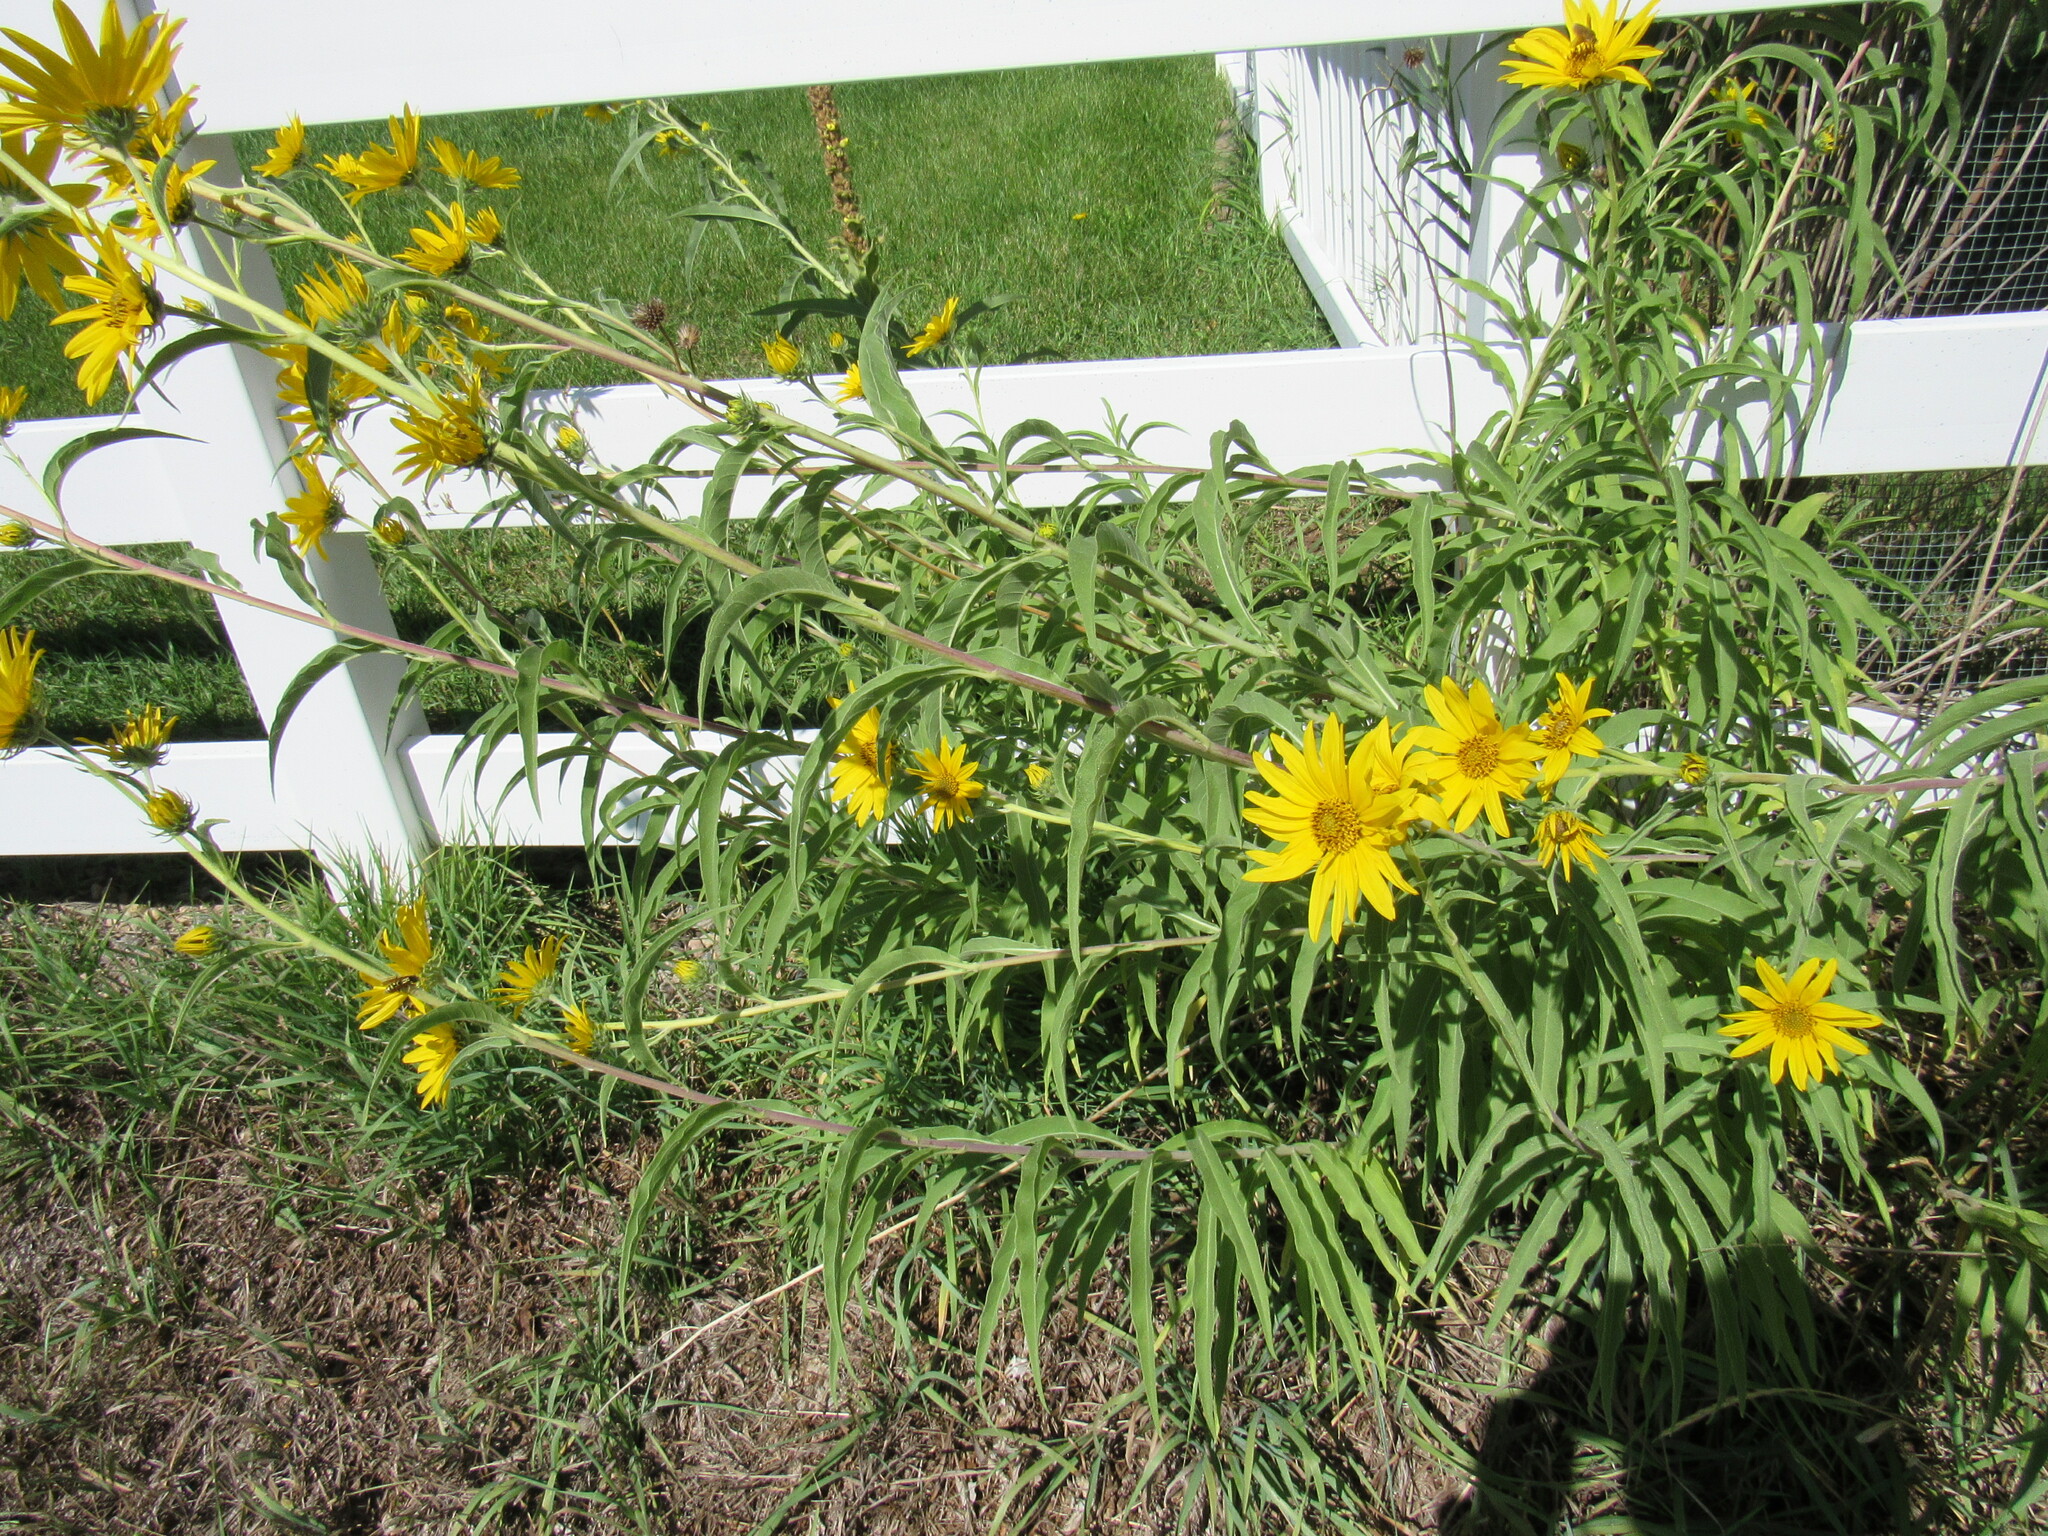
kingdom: Plantae
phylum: Tracheophyta
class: Magnoliopsida
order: Asterales
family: Asteraceae
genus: Helianthus
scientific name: Helianthus maximiliani
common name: Maximilian's sunflower
